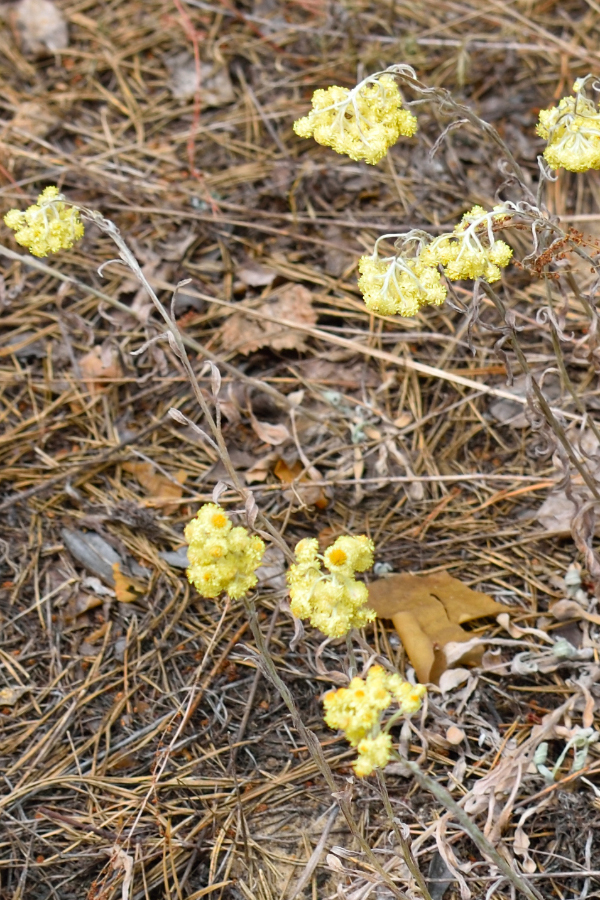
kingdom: Plantae
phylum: Tracheophyta
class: Magnoliopsida
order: Asterales
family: Asteraceae
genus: Helichrysum
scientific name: Helichrysum arenarium
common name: Strawflower
